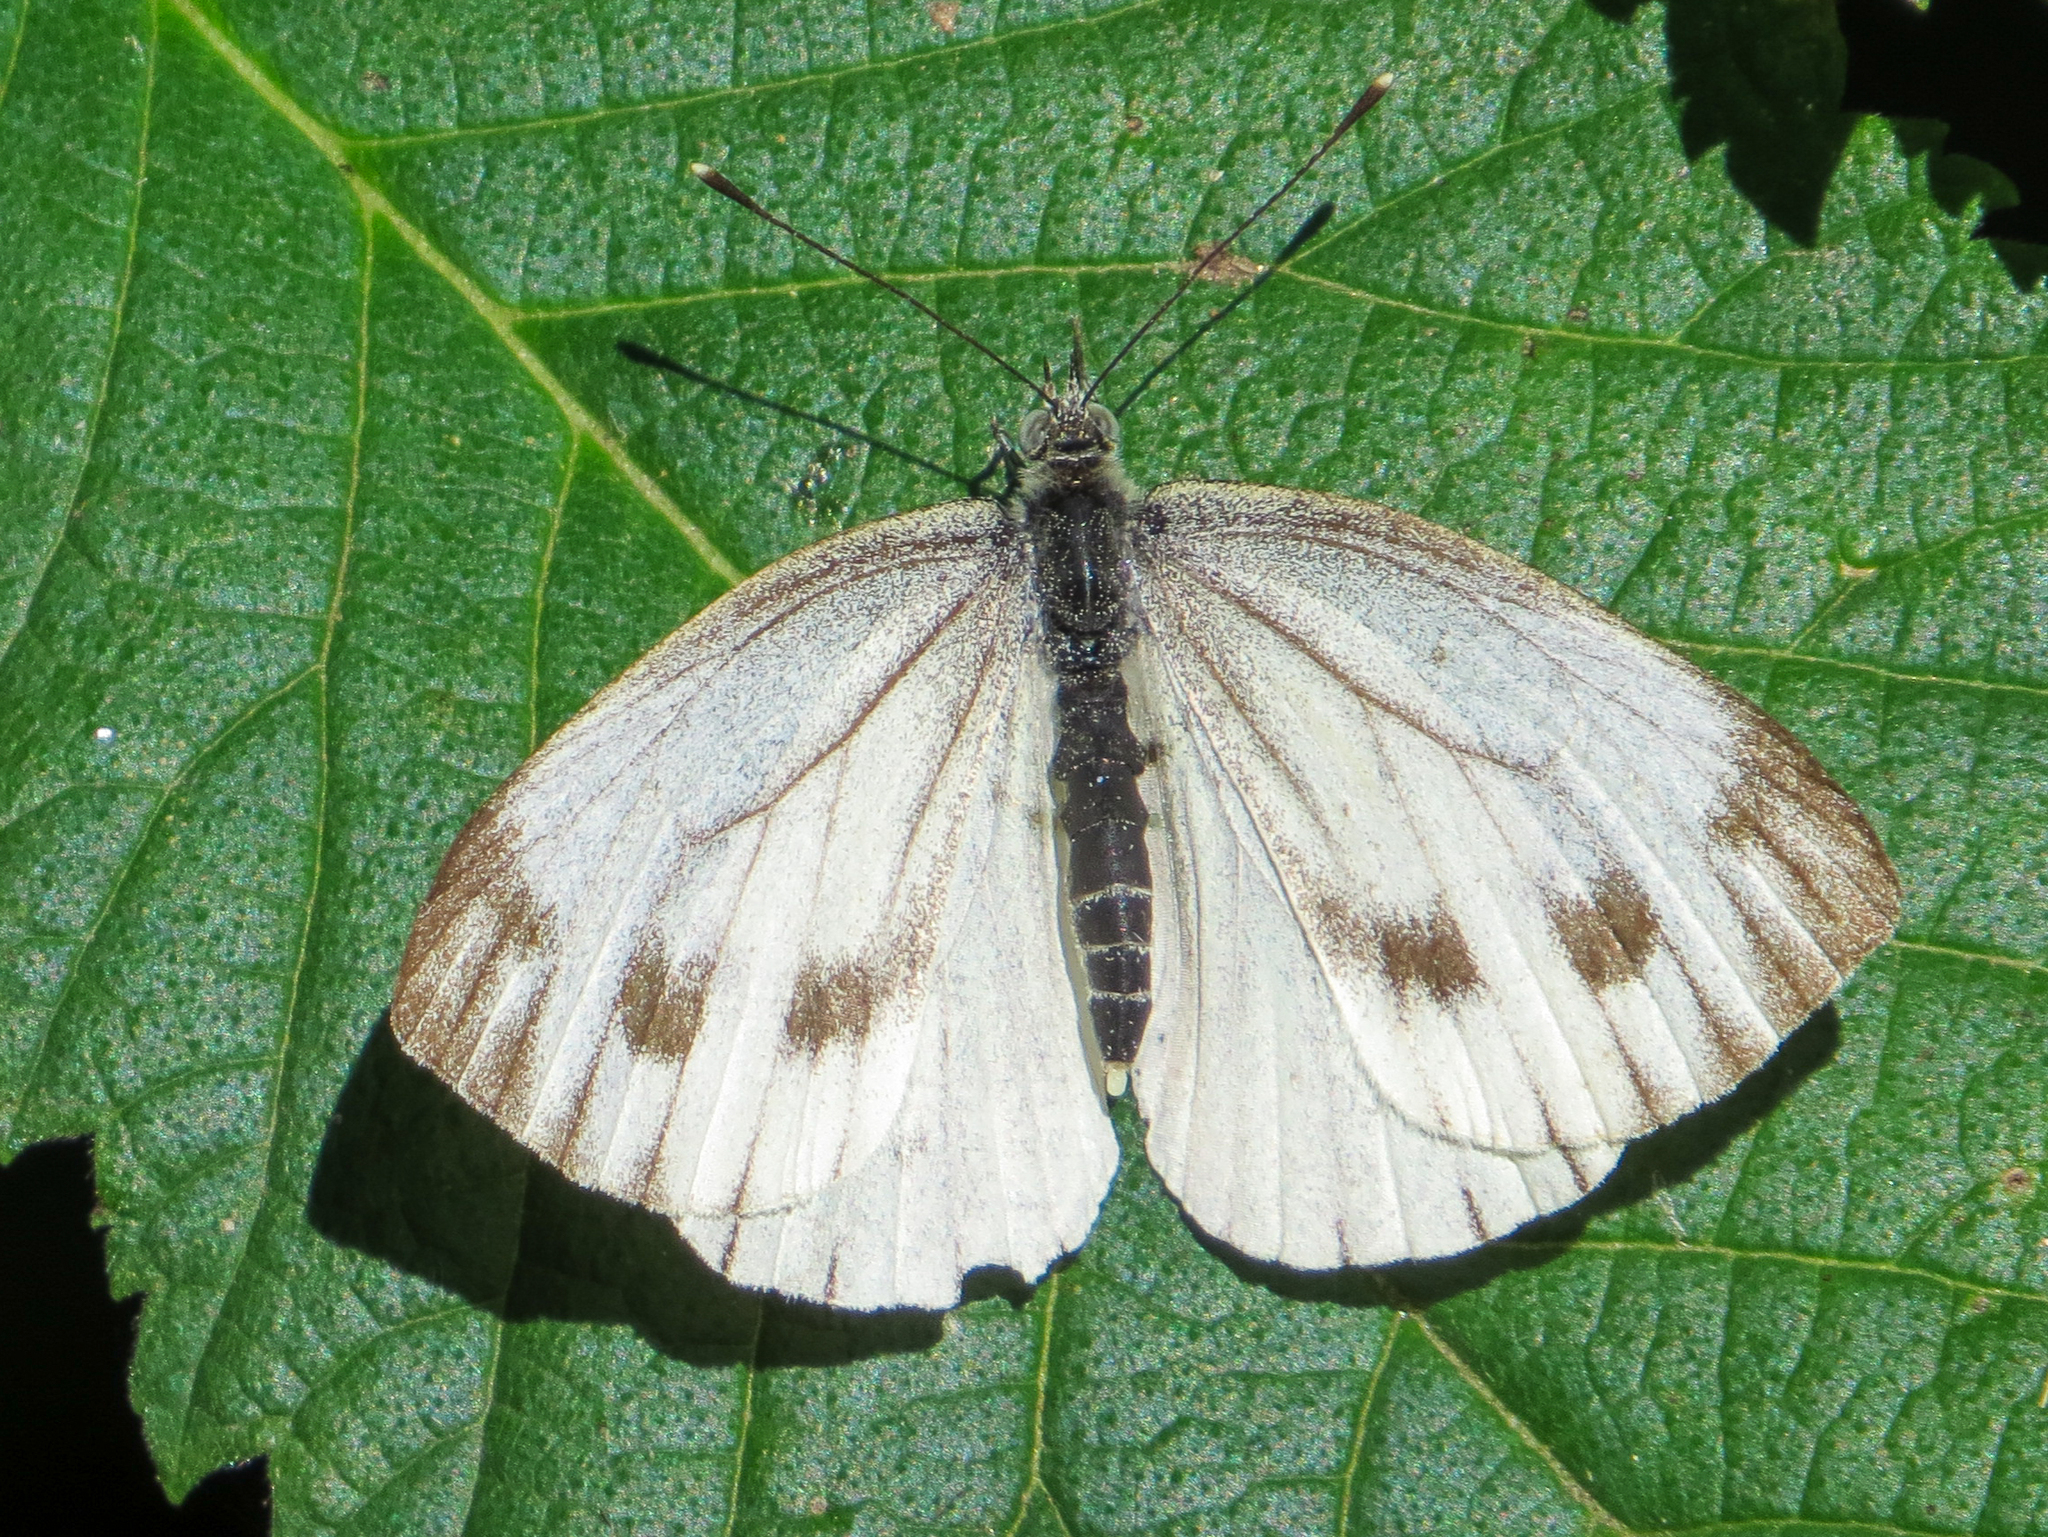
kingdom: Animalia
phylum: Arthropoda
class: Insecta
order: Lepidoptera
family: Pieridae
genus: Pieris
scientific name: Pieris napi
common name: Green-veined white
